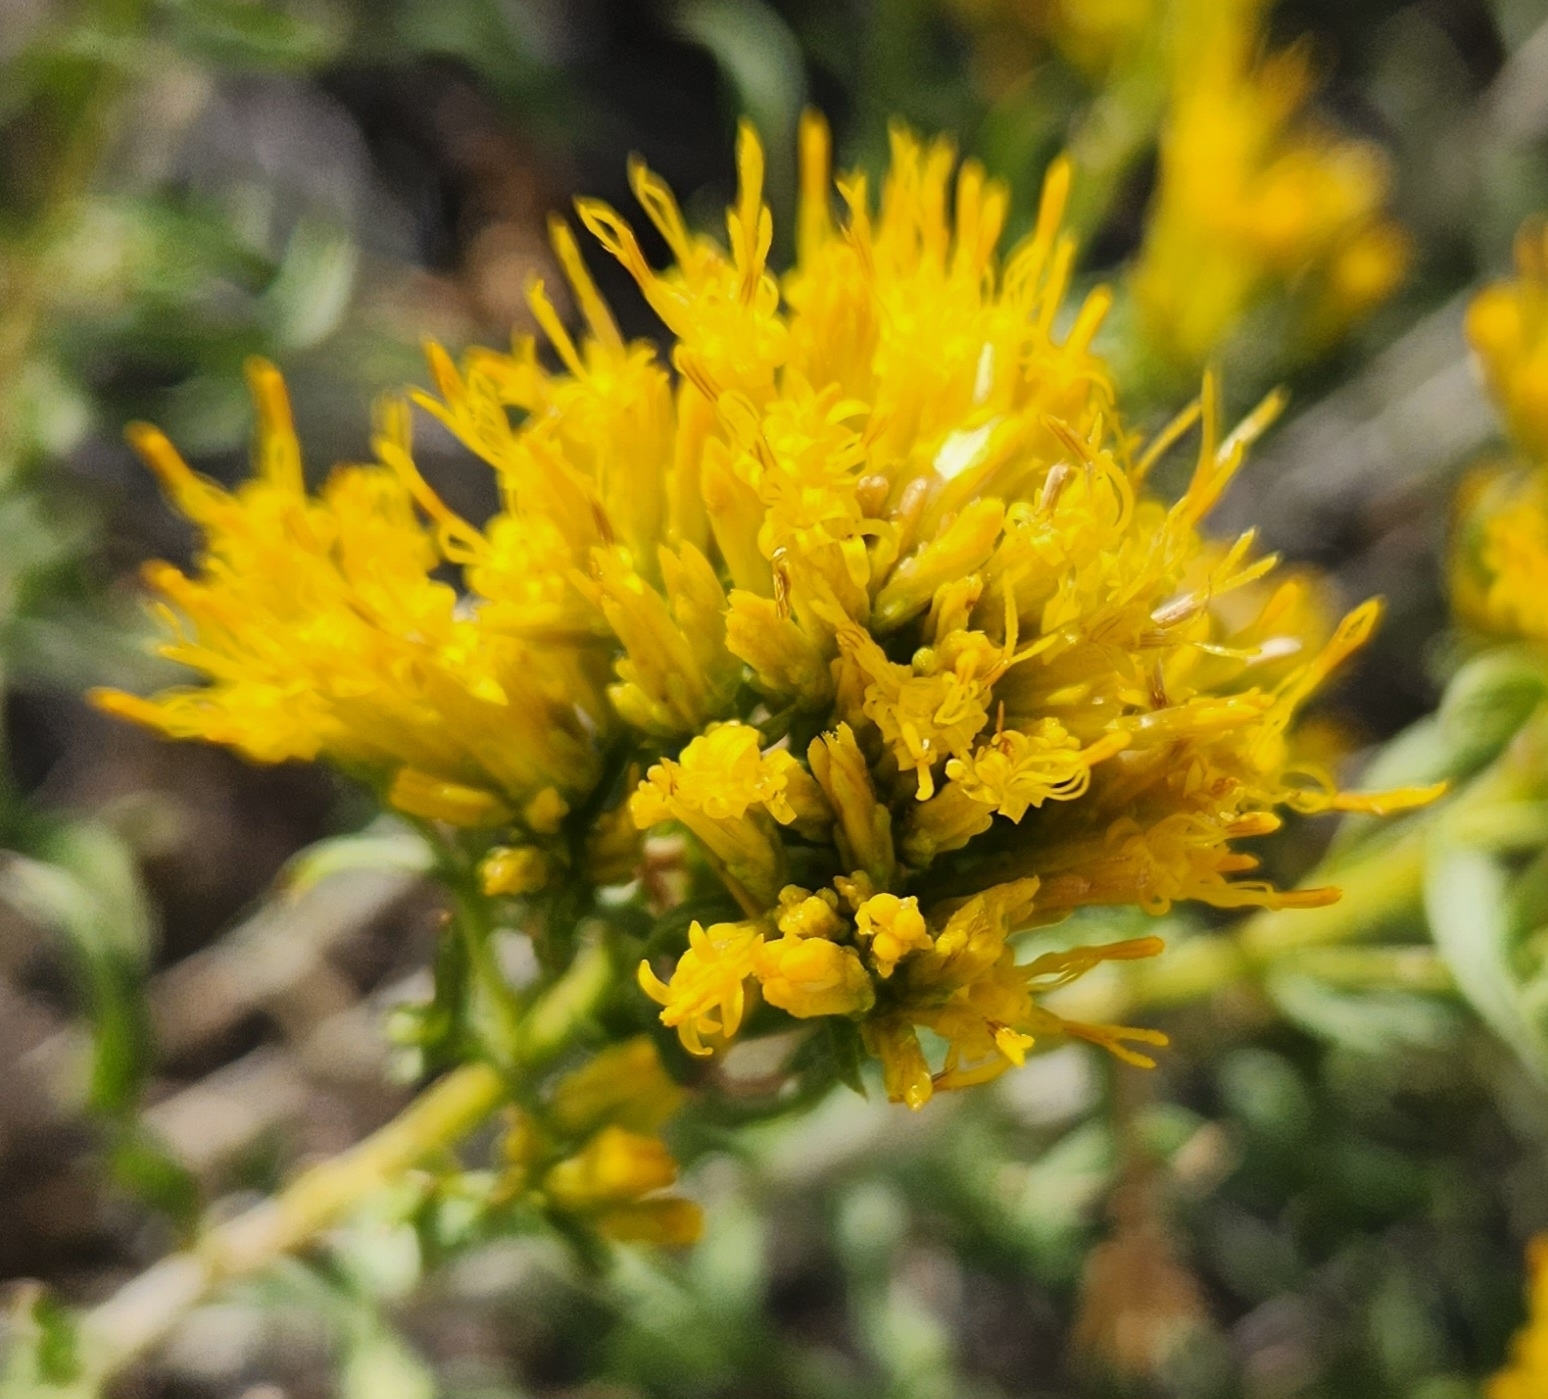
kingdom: Plantae
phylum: Tracheophyta
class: Magnoliopsida
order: Asterales
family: Asteraceae
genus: Chrysothamnus
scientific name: Chrysothamnus viscidiflorus
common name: Yellow rabbitbrush
